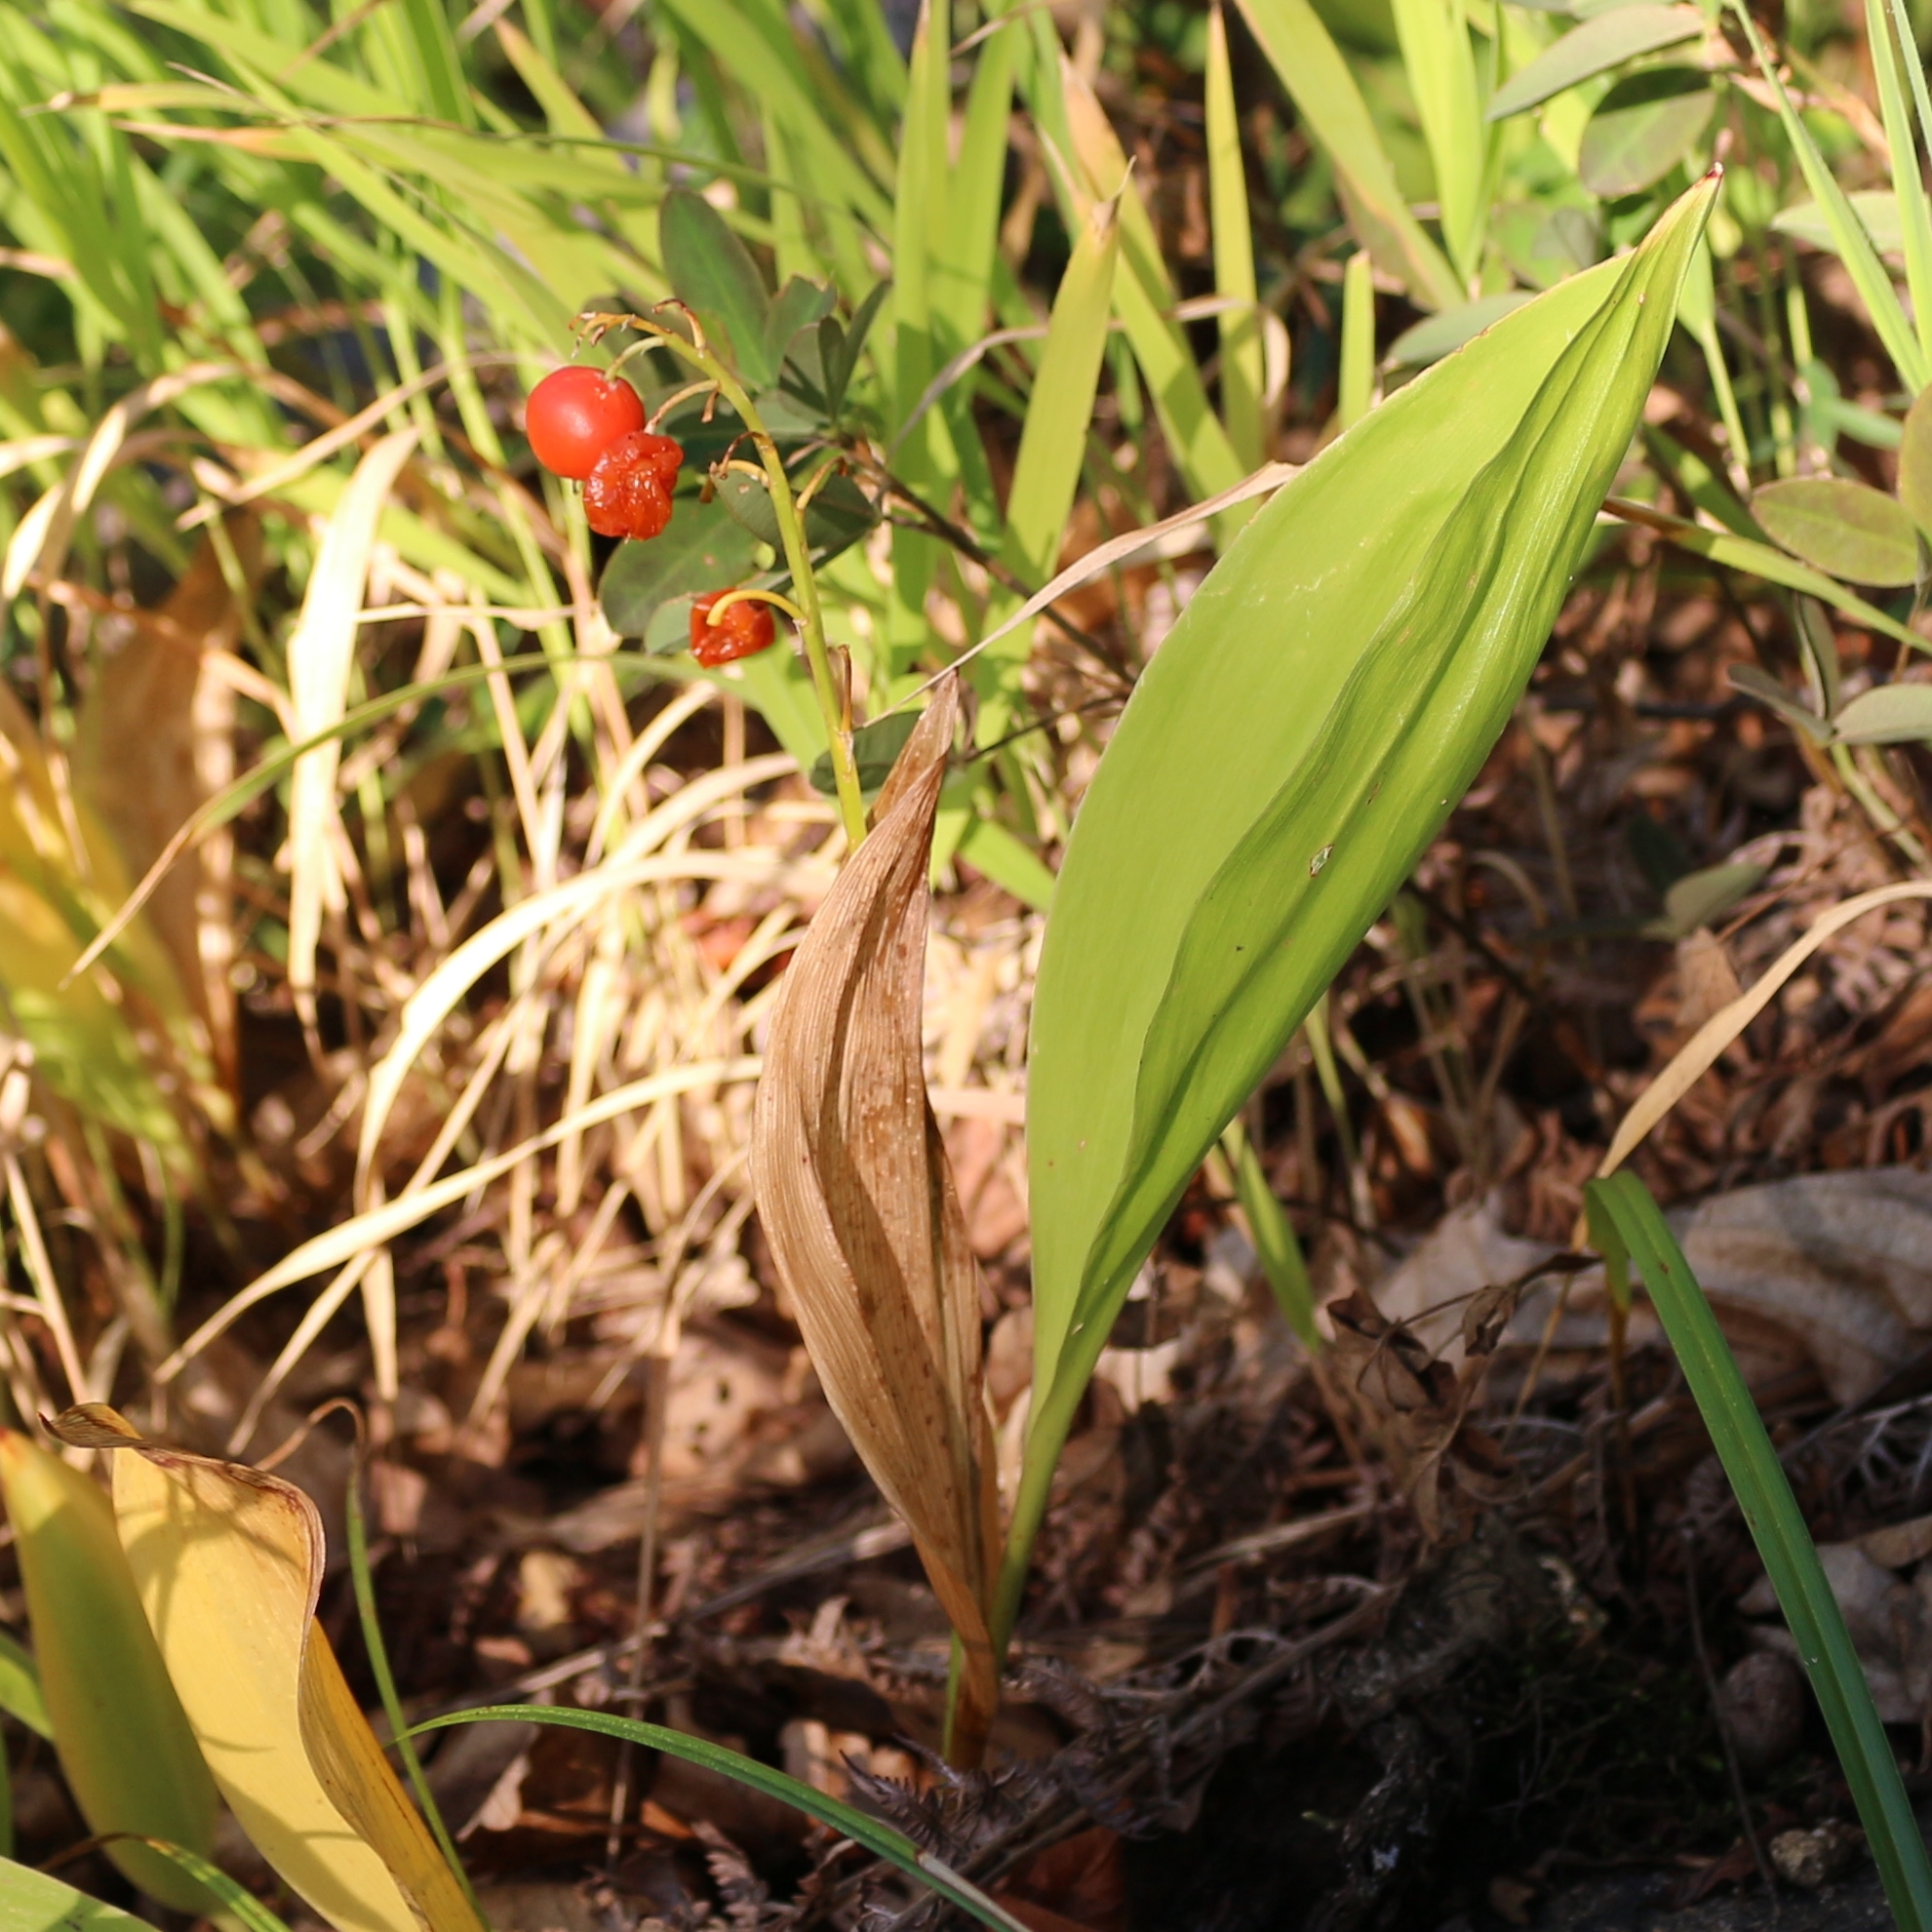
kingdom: Plantae
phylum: Tracheophyta
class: Liliopsida
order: Asparagales
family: Asparagaceae
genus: Convallaria
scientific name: Convallaria majalis
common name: Lily-of-the-valley
